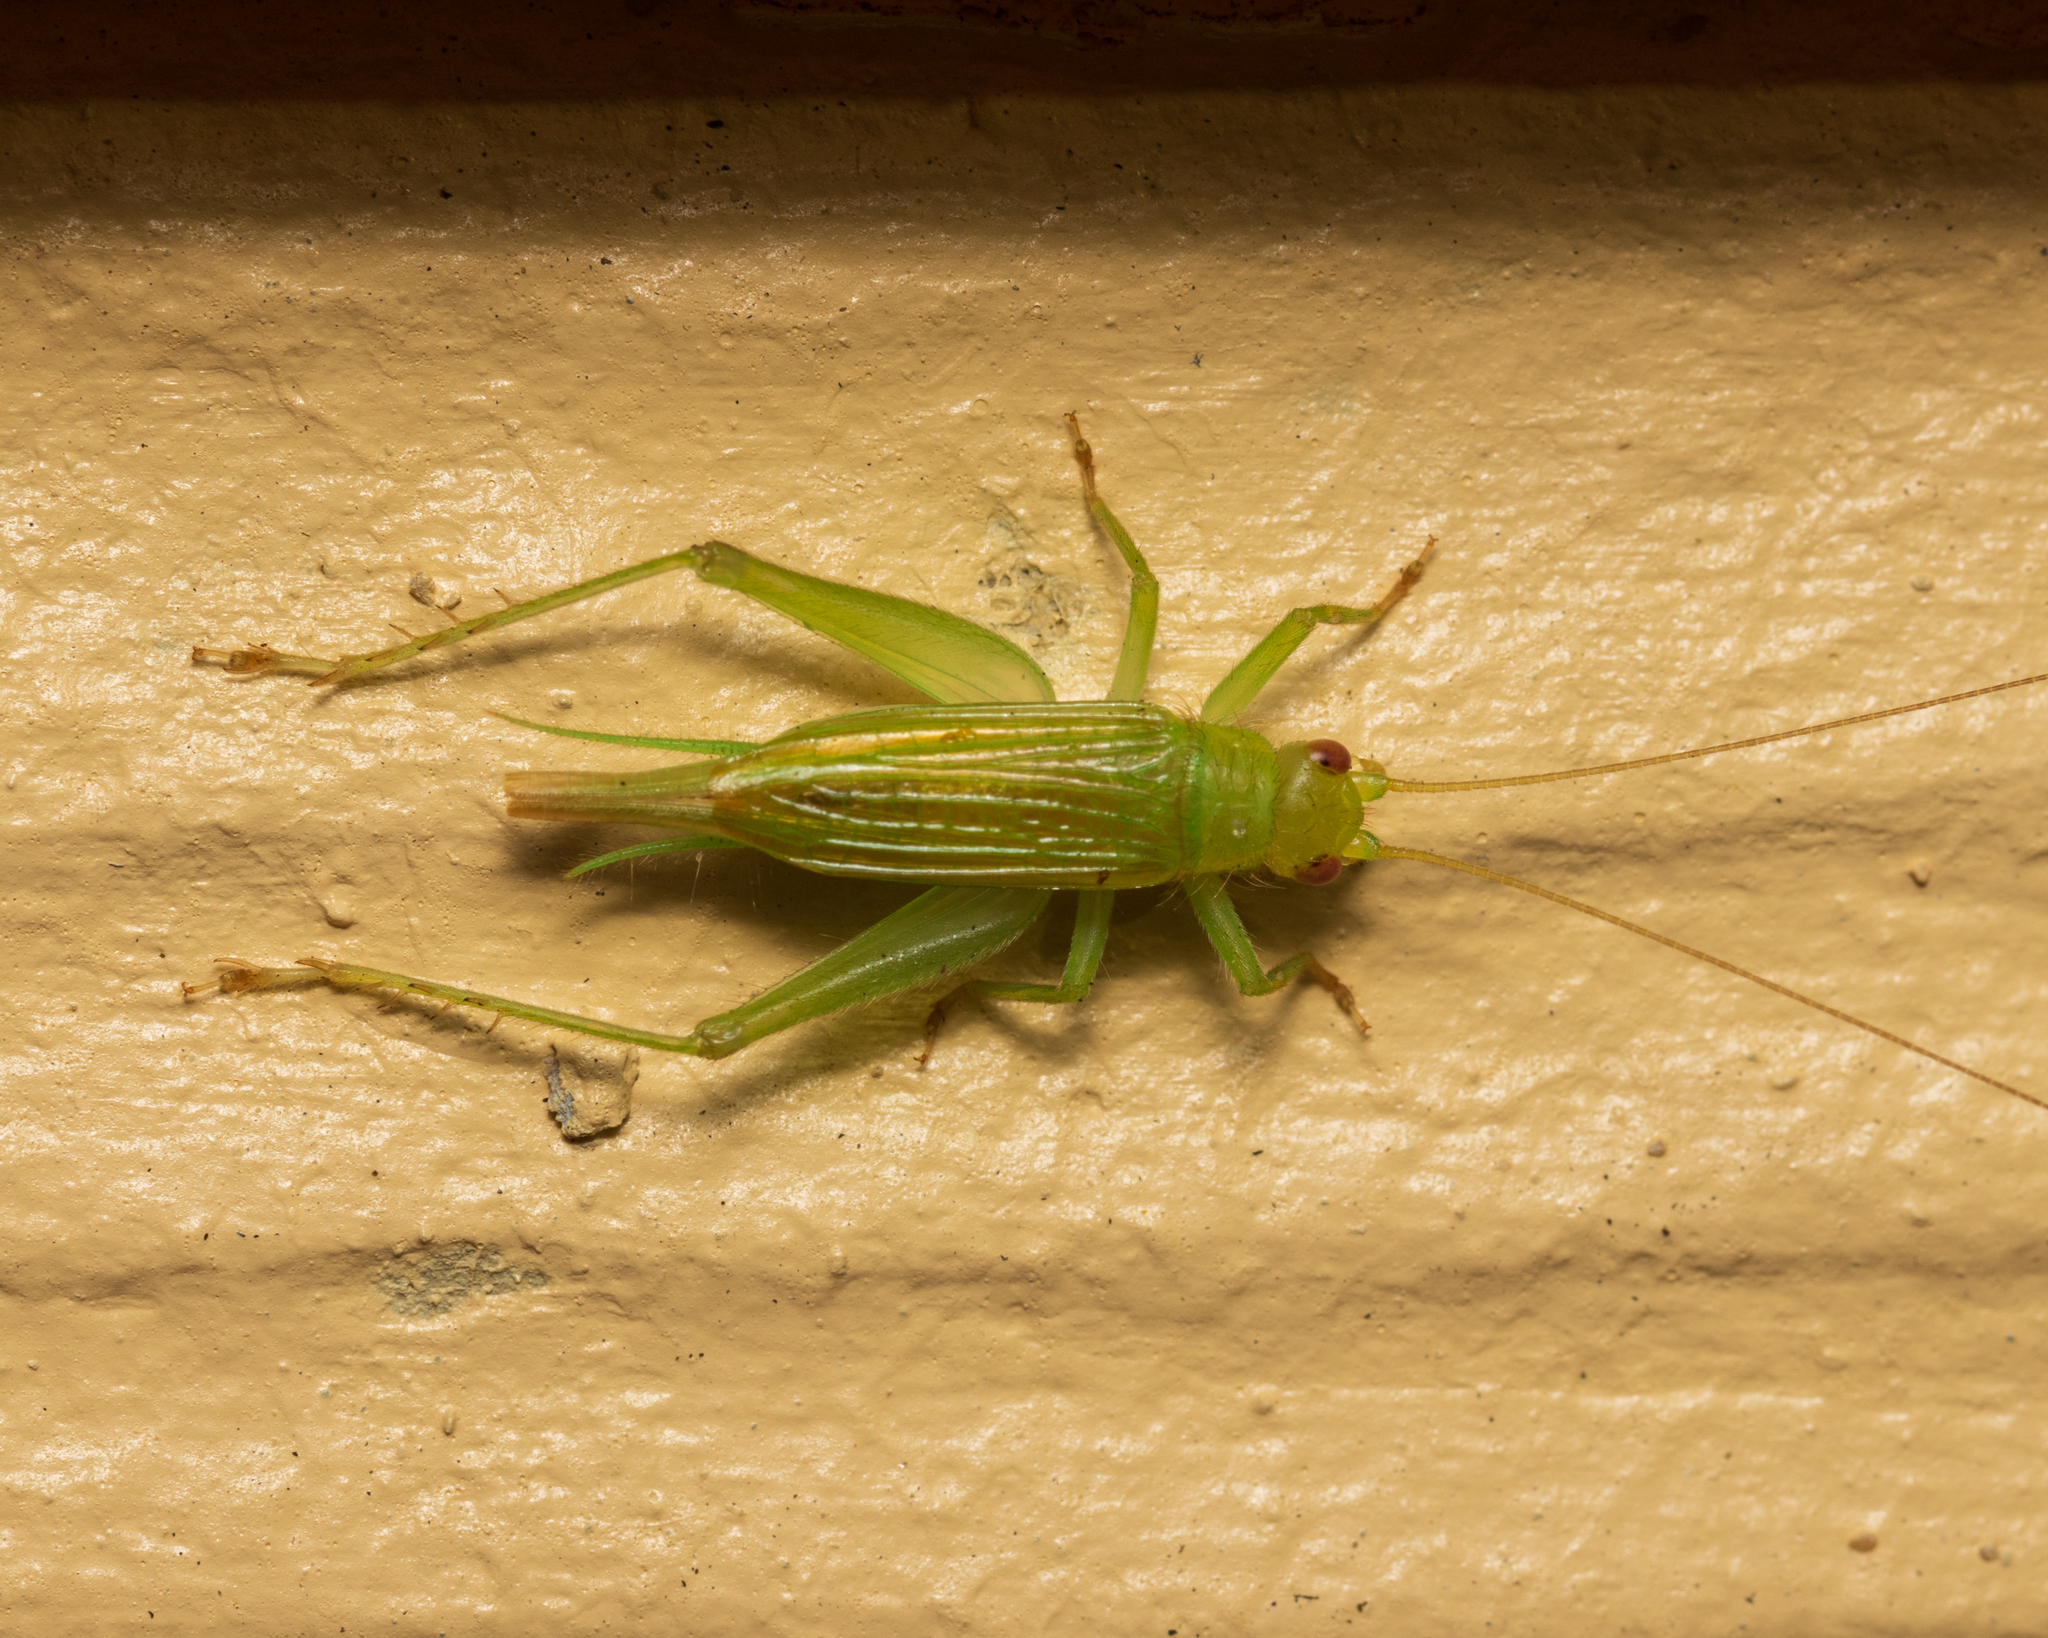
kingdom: Animalia
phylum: Arthropoda
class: Insecta
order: Orthoptera
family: Trigonidiidae
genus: Cyrtoxipha
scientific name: Cyrtoxipha columbiana
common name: Columbian trig
